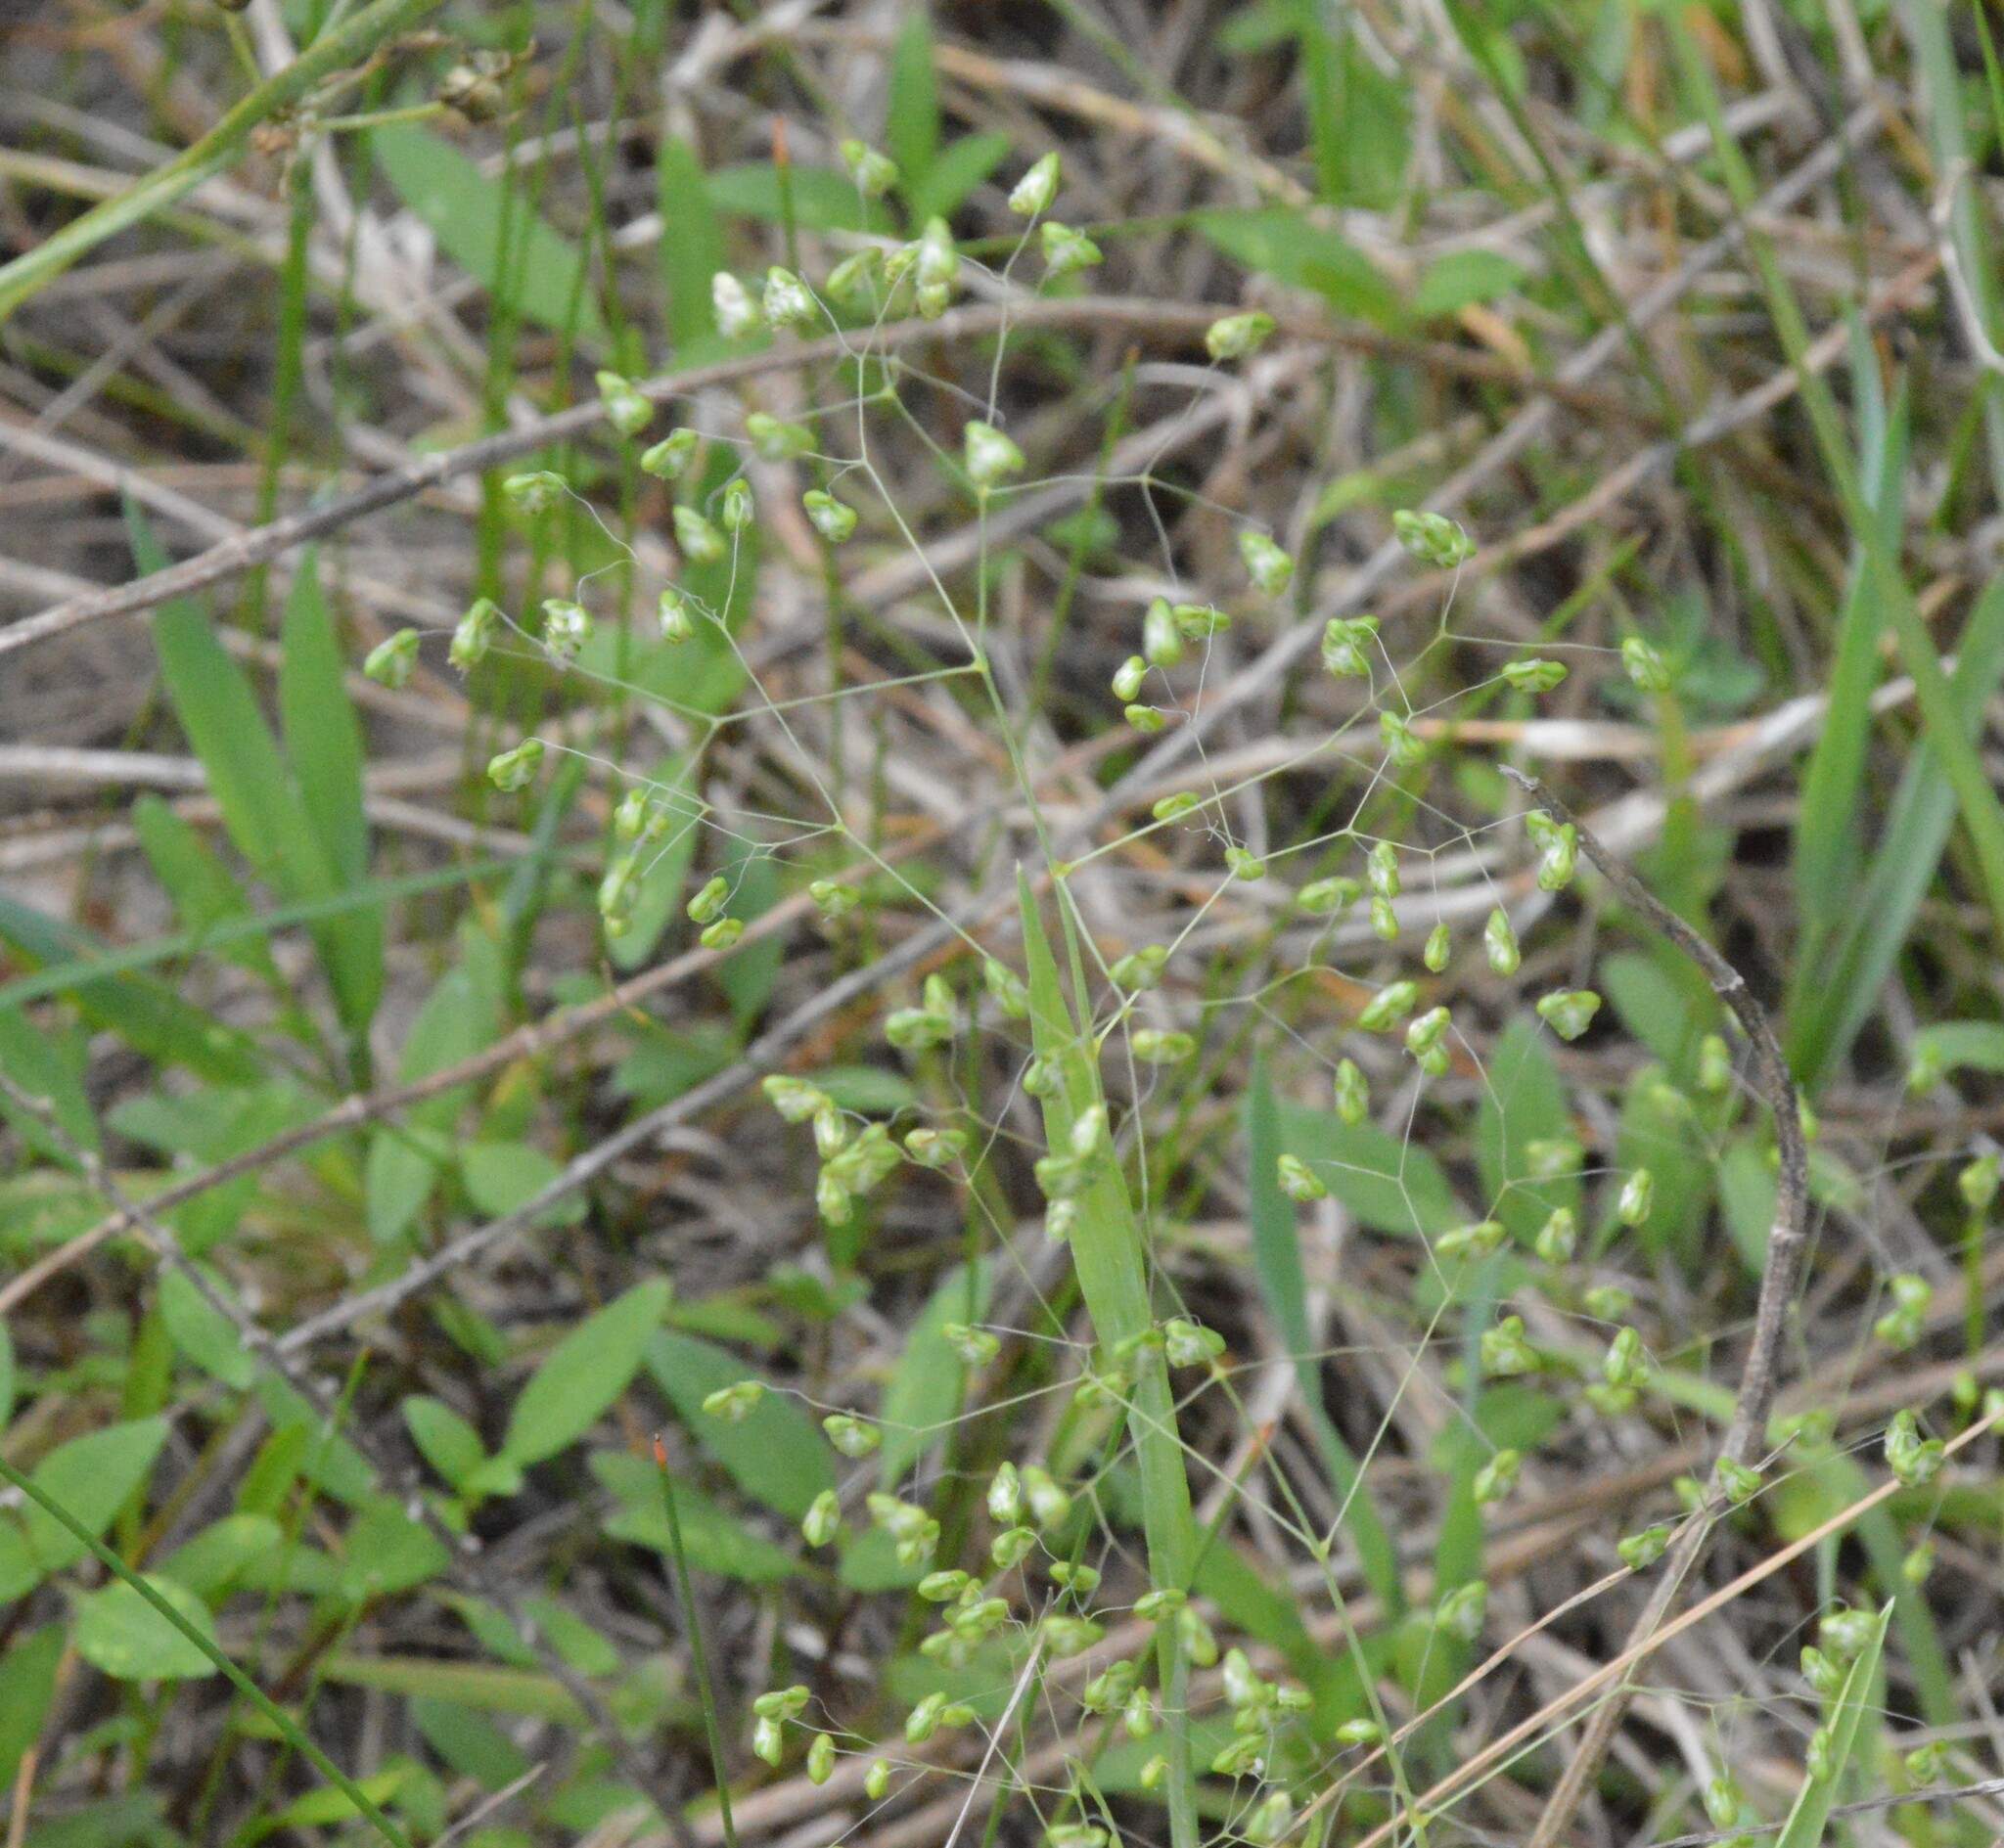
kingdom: Plantae
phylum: Tracheophyta
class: Liliopsida
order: Poales
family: Poaceae
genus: Briza
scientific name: Briza minor
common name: Lesser quaking-grass
